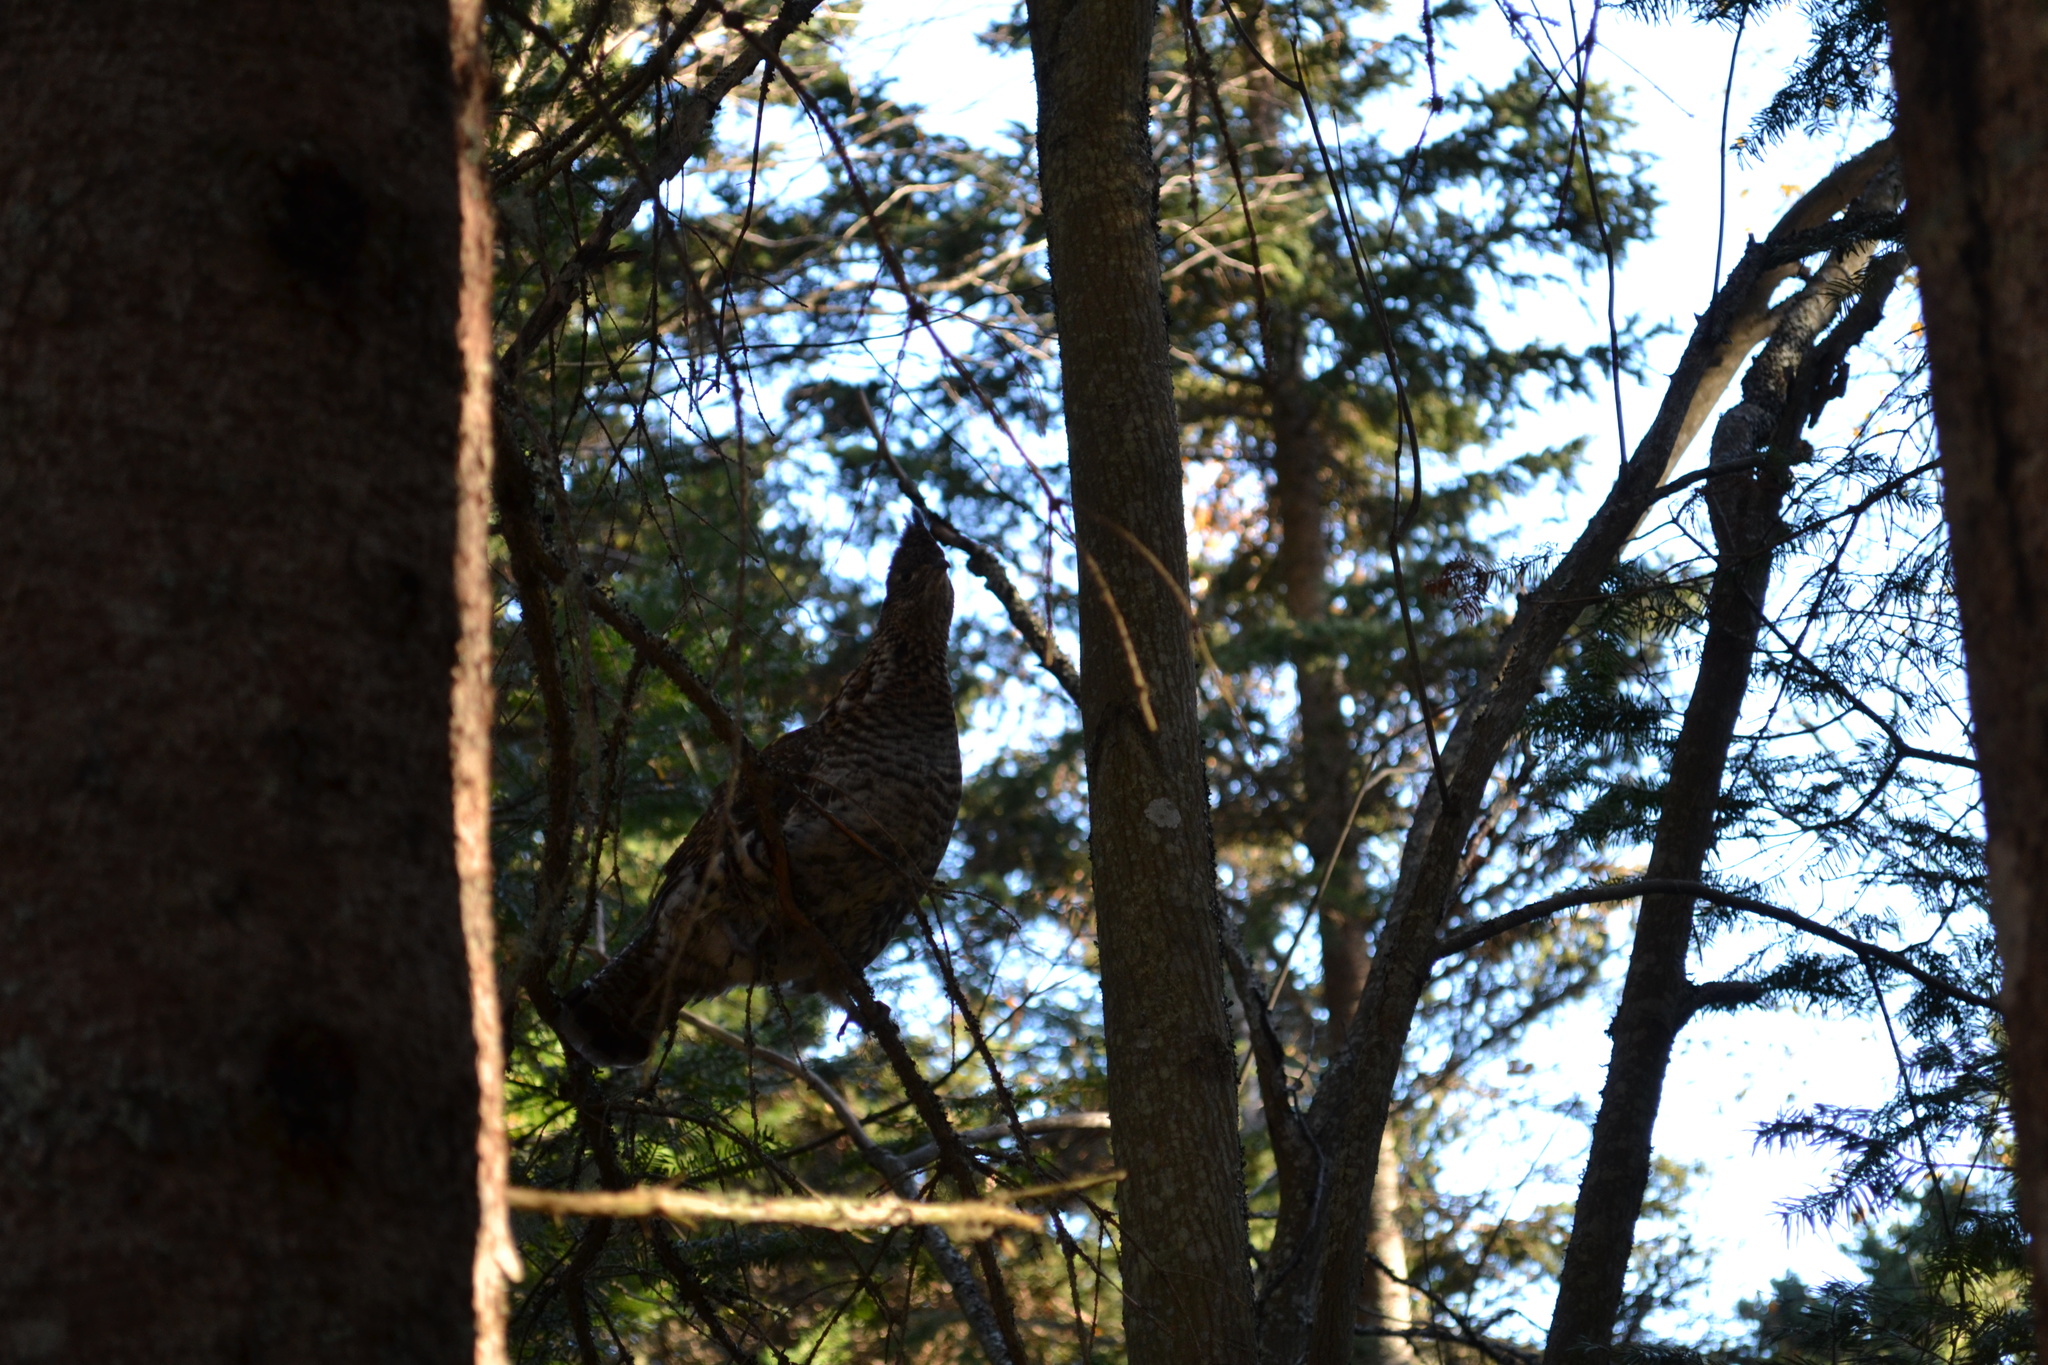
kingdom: Animalia
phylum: Chordata
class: Aves
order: Galliformes
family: Phasianidae
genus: Bonasa
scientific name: Bonasa umbellus
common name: Ruffed grouse
